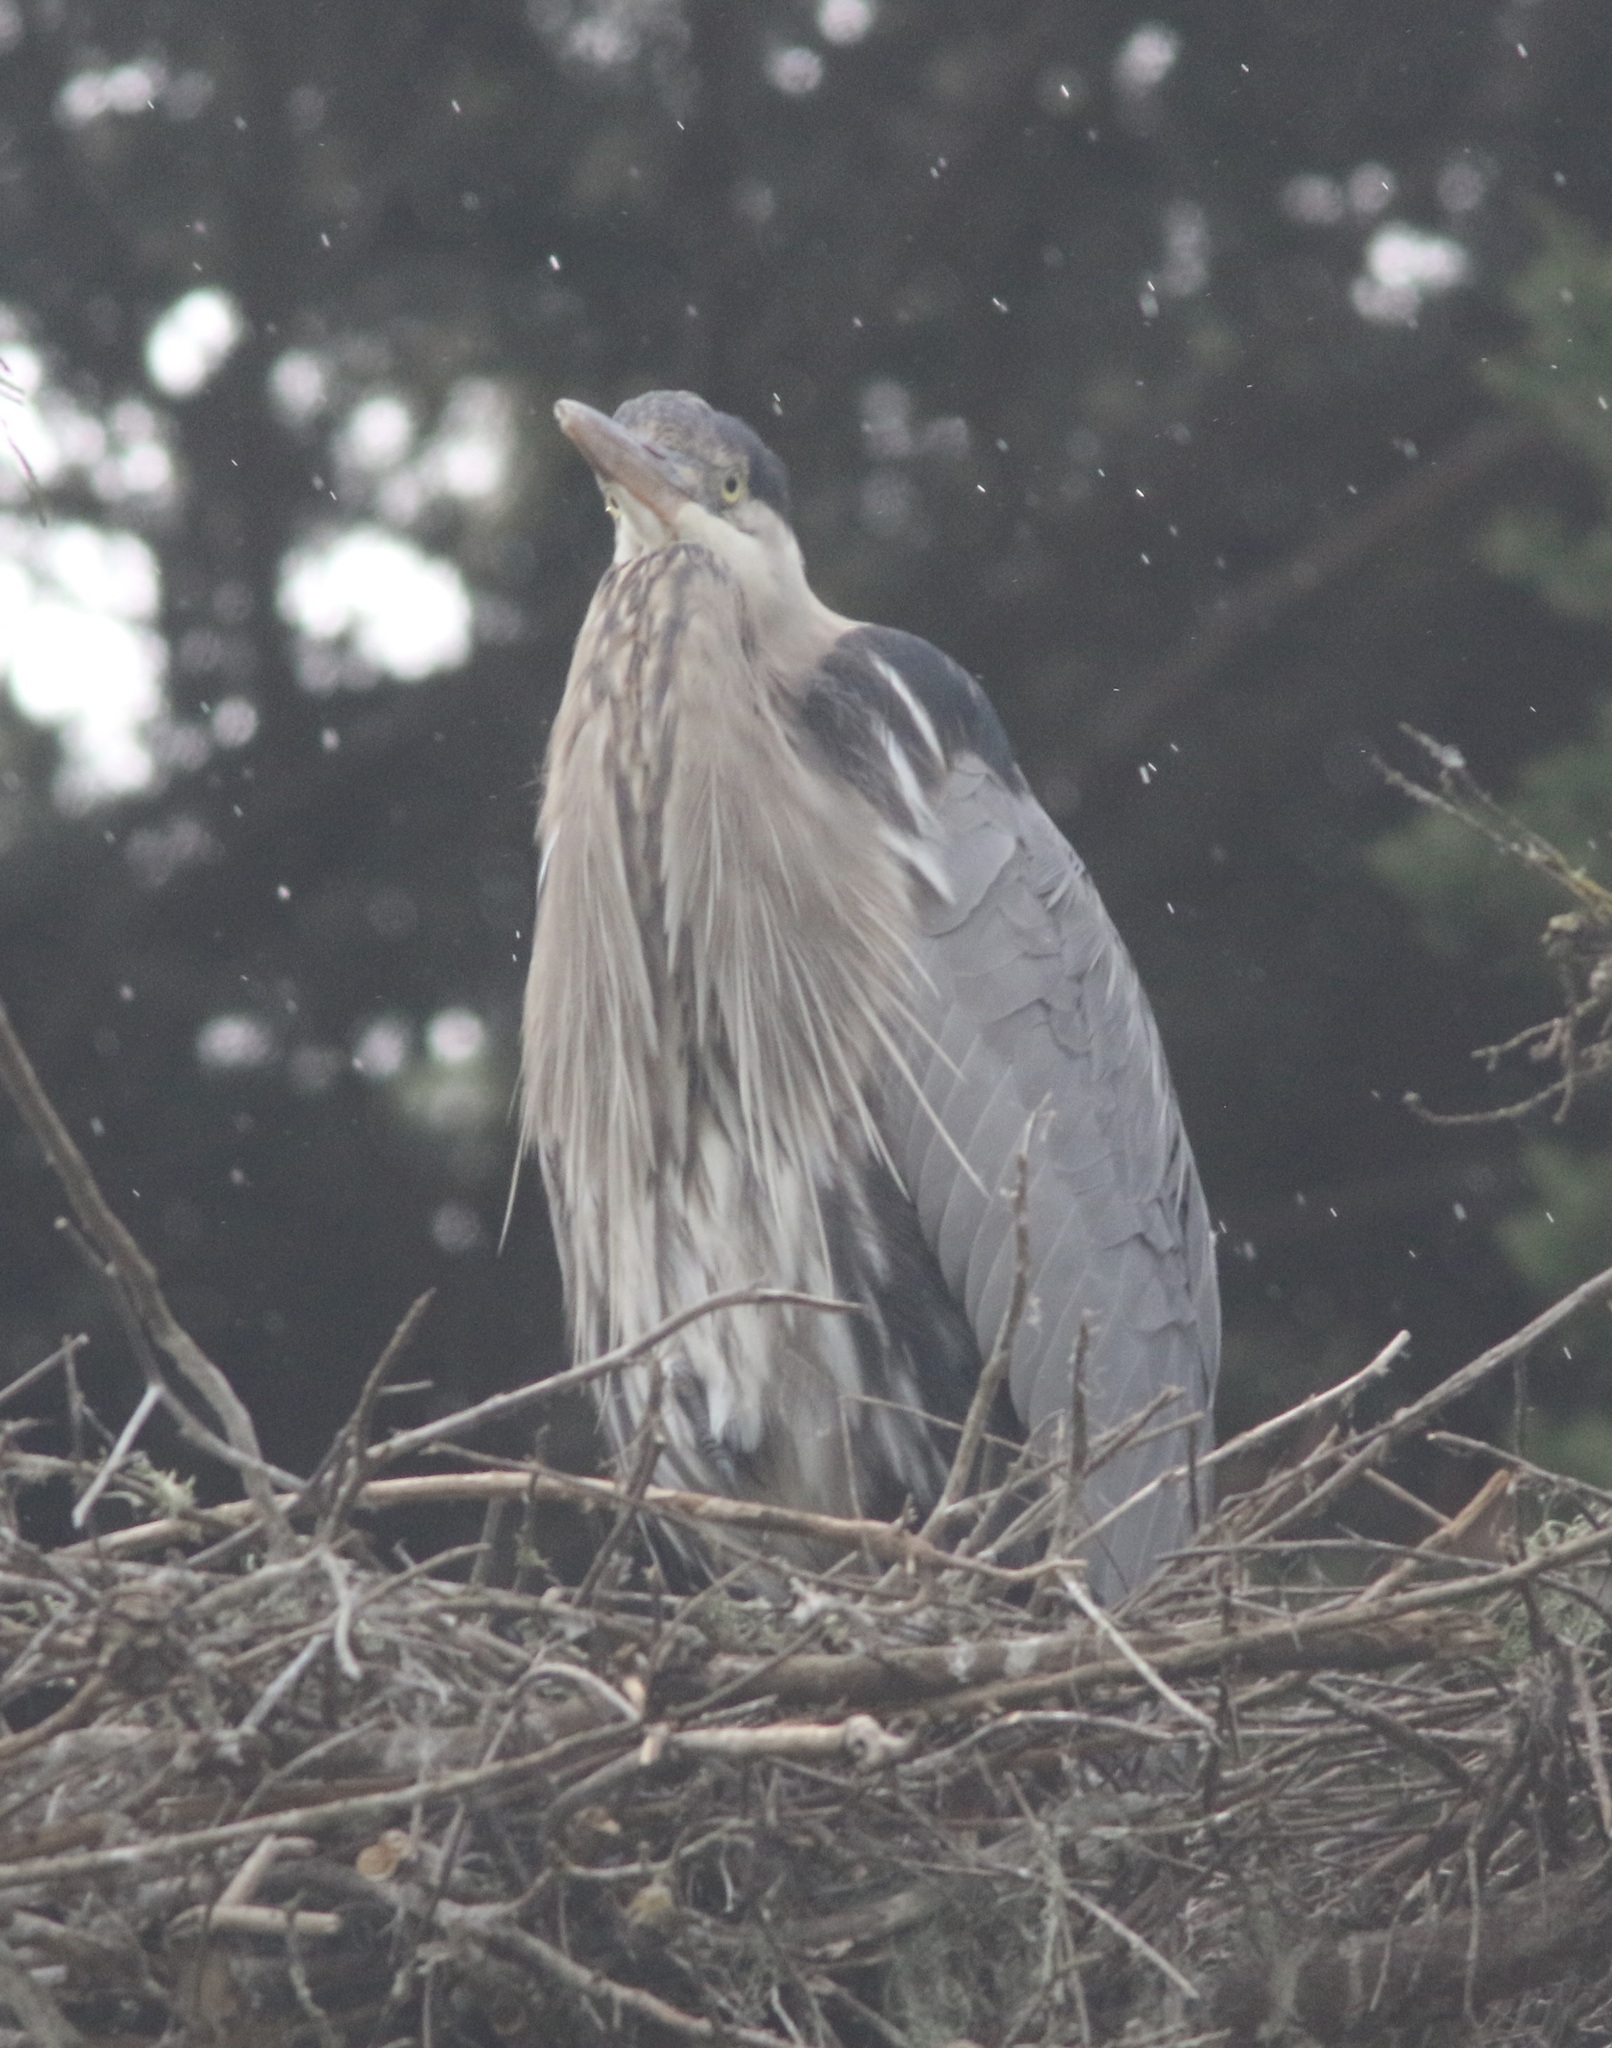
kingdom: Animalia
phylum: Chordata
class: Aves
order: Pelecaniformes
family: Ardeidae
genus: Ardea
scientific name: Ardea herodias
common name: Great blue heron
